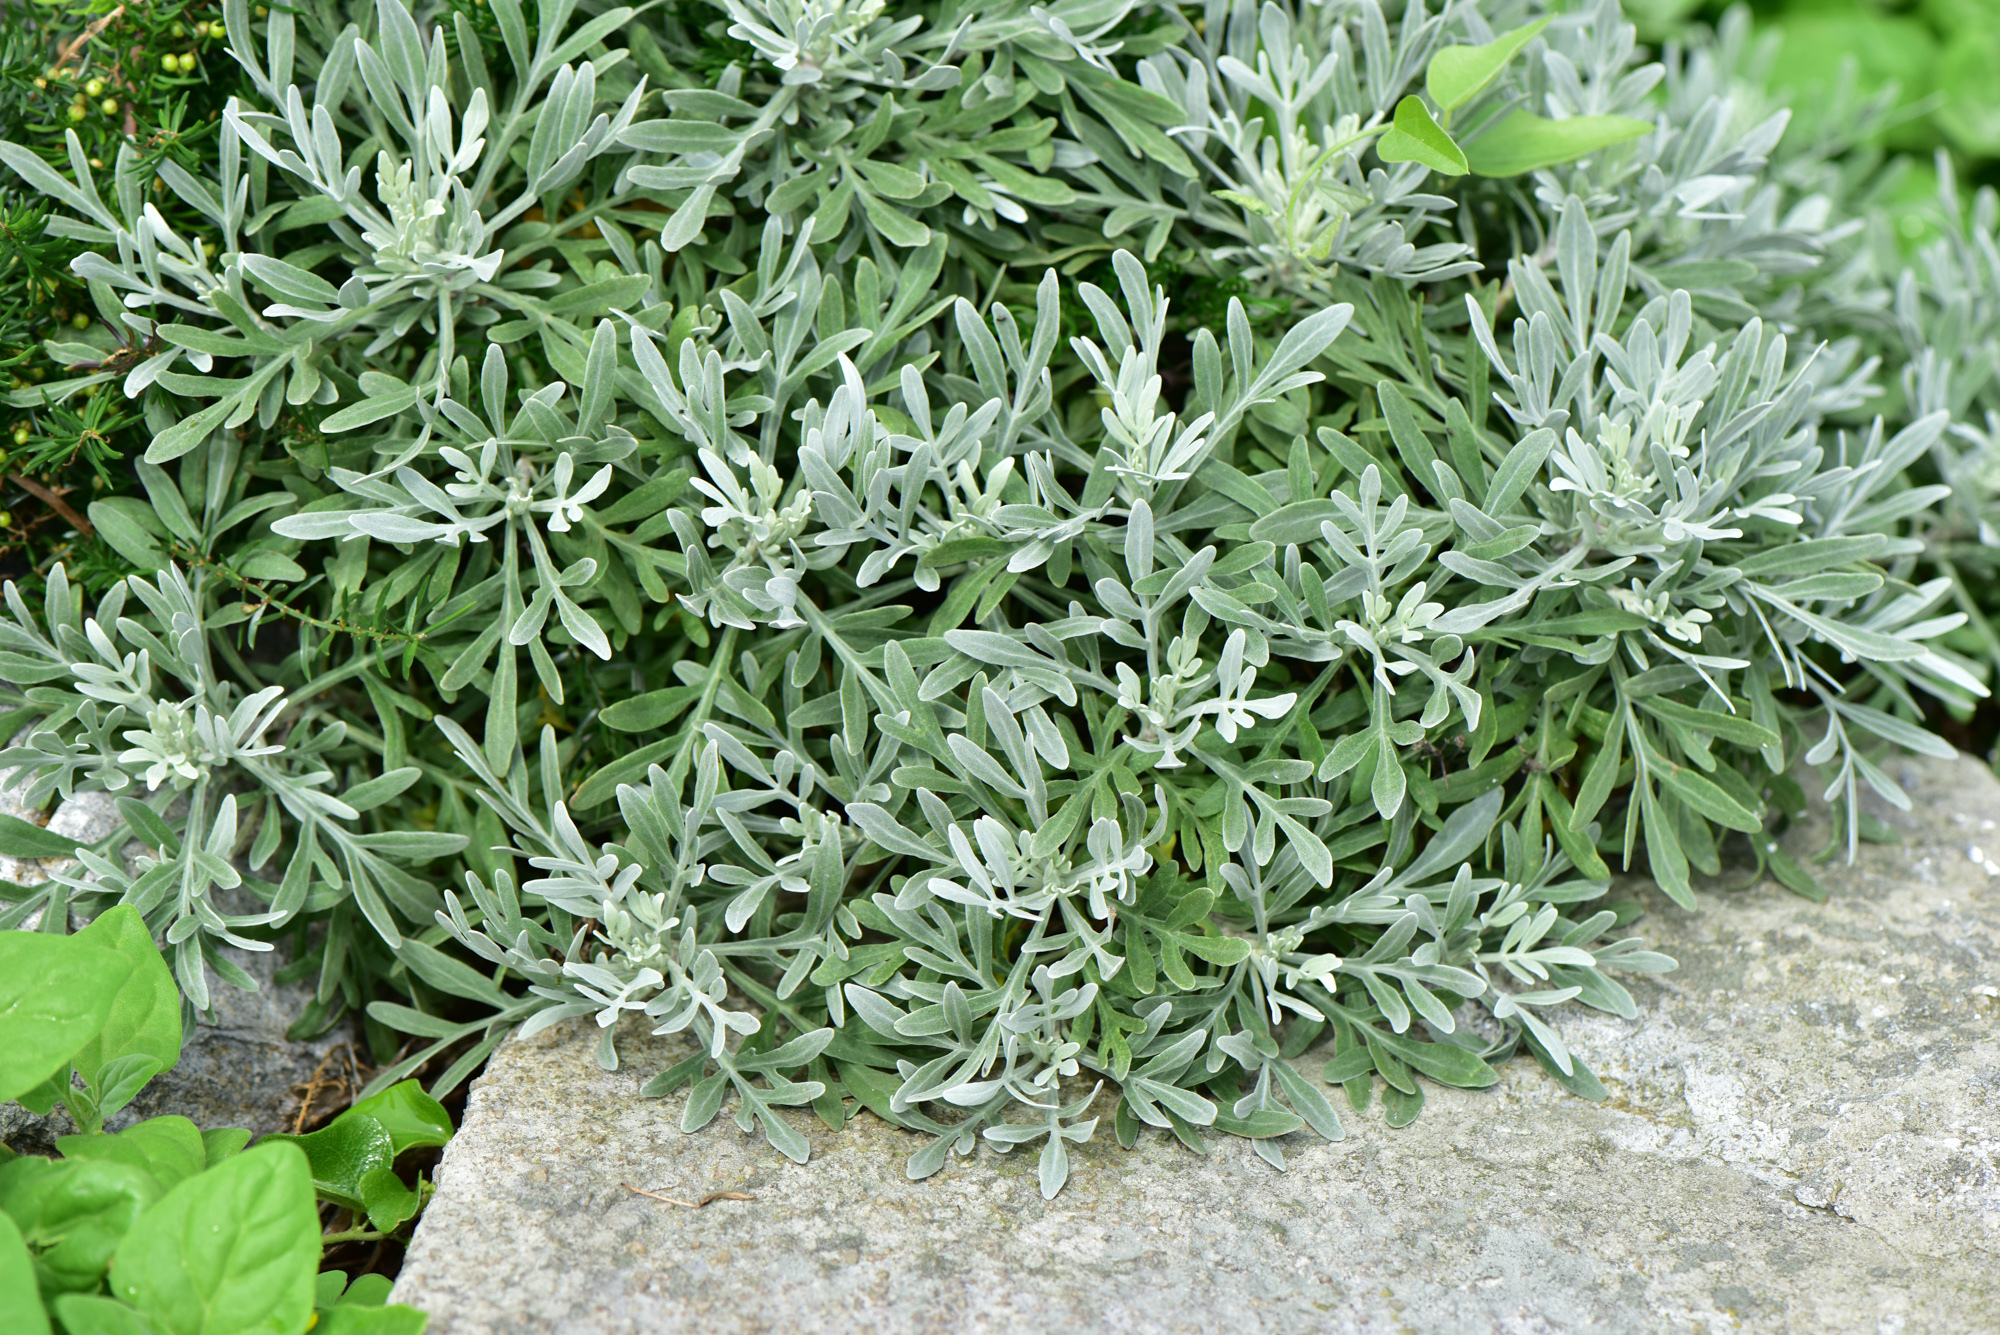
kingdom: Plantae
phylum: Tracheophyta
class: Magnoliopsida
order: Asterales
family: Asteraceae
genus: Crossostephium
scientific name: Crossostephium chinense
